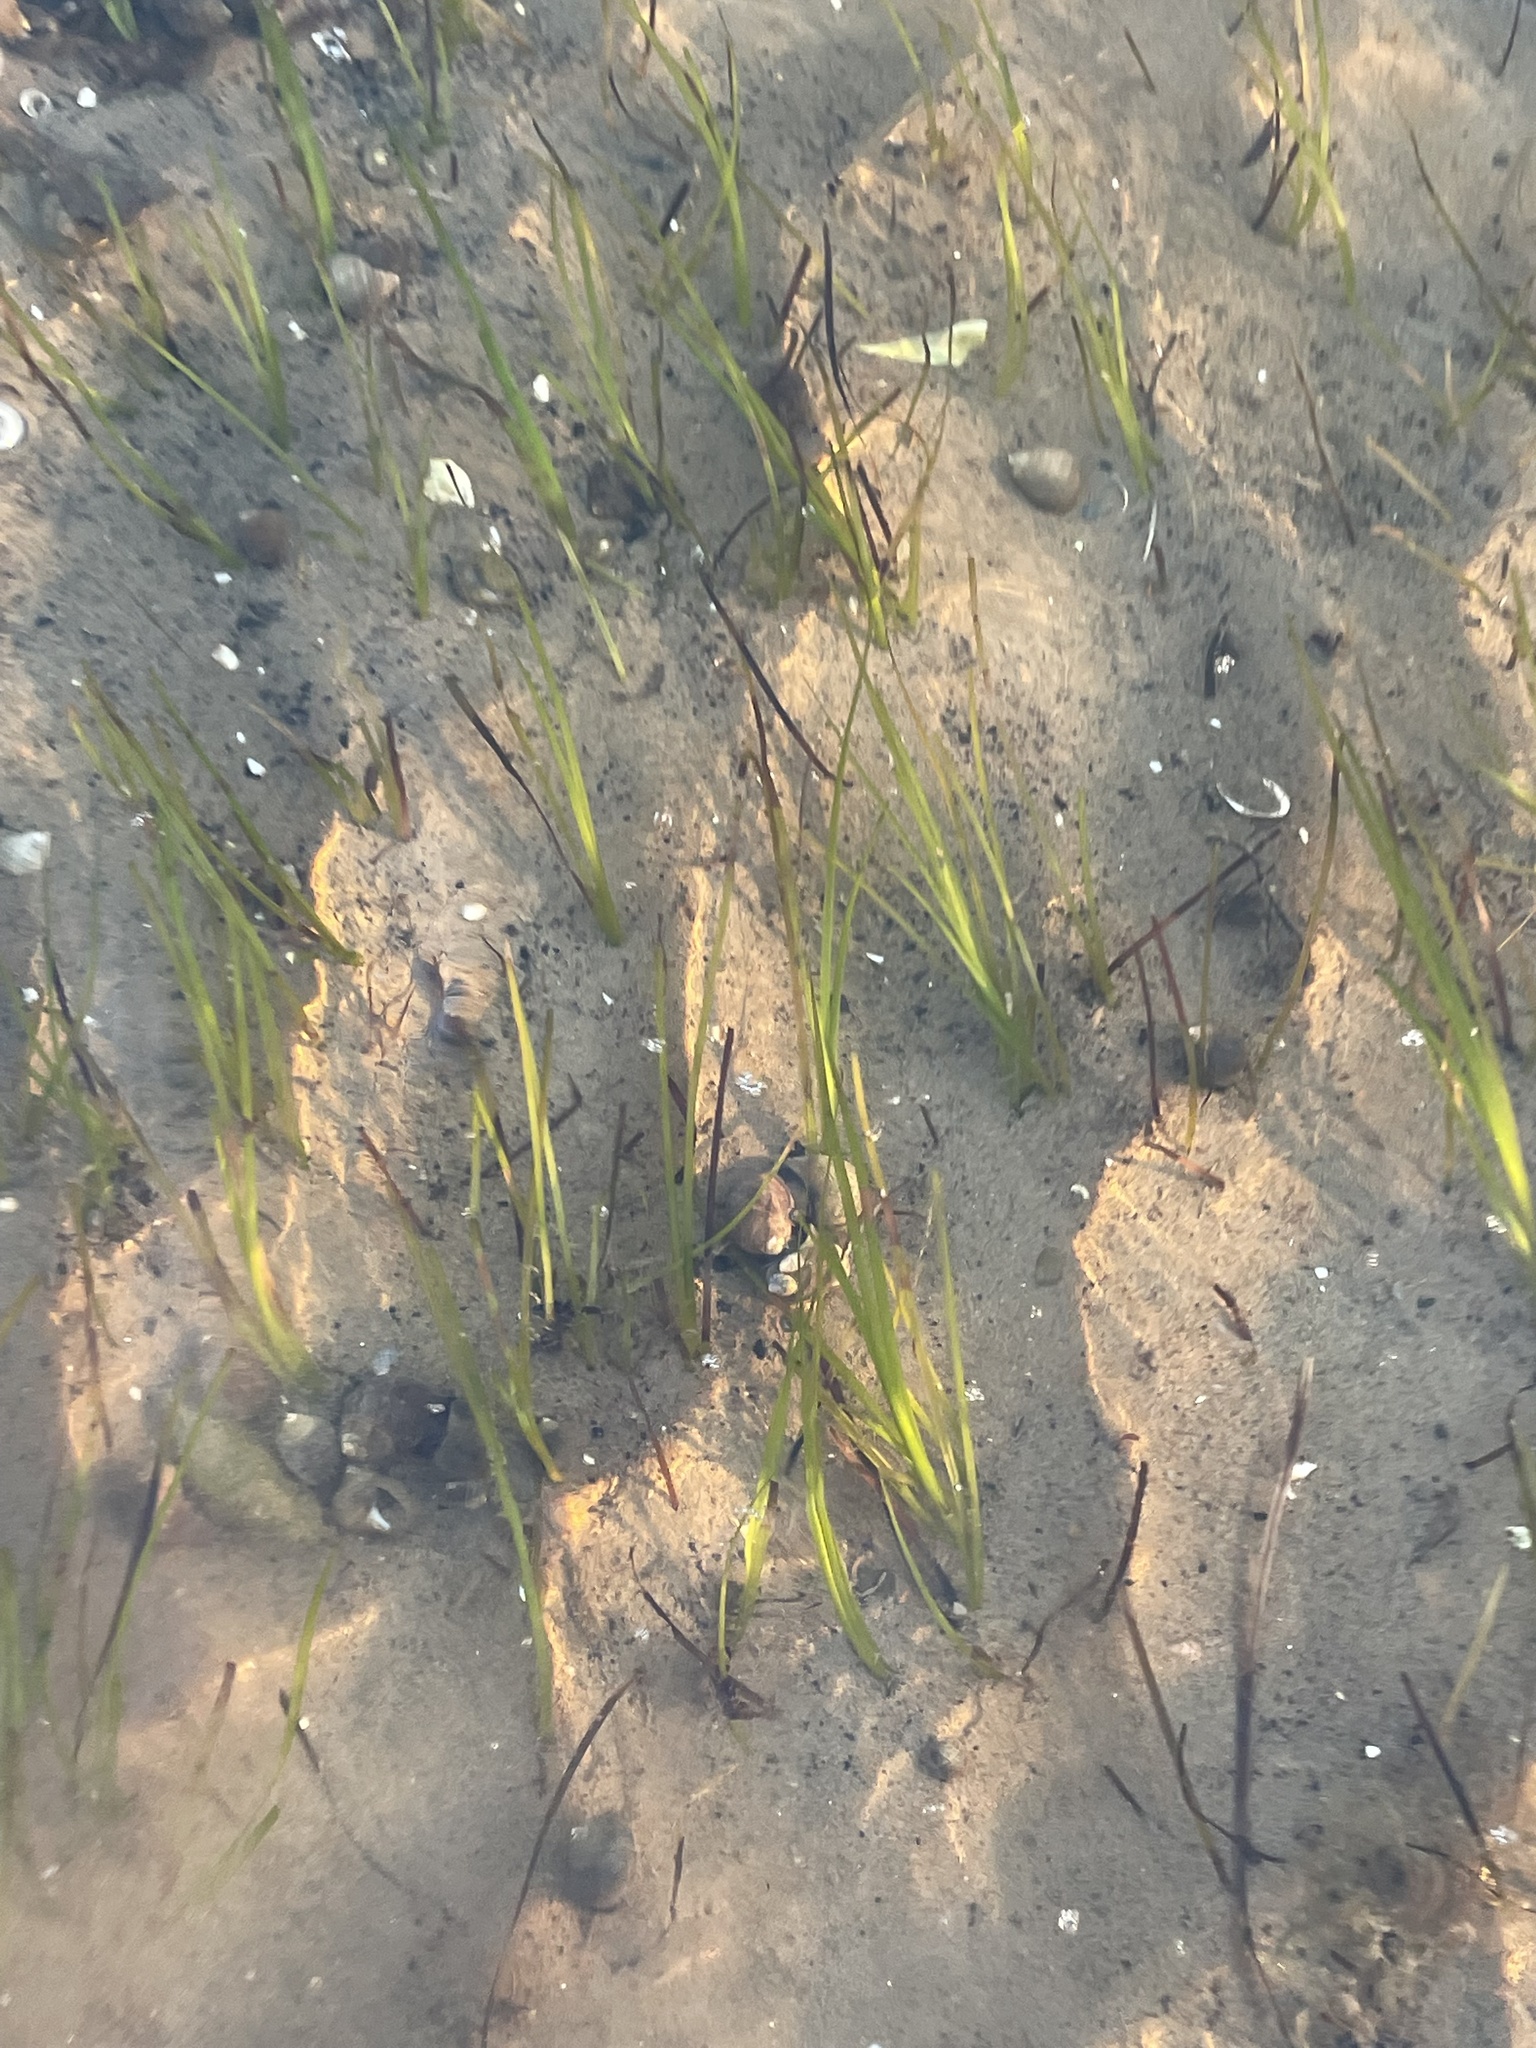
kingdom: Plantae
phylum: Tracheophyta
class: Liliopsida
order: Alismatales
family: Zosteraceae
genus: Zostera
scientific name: Zostera marina
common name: Eelgrass
